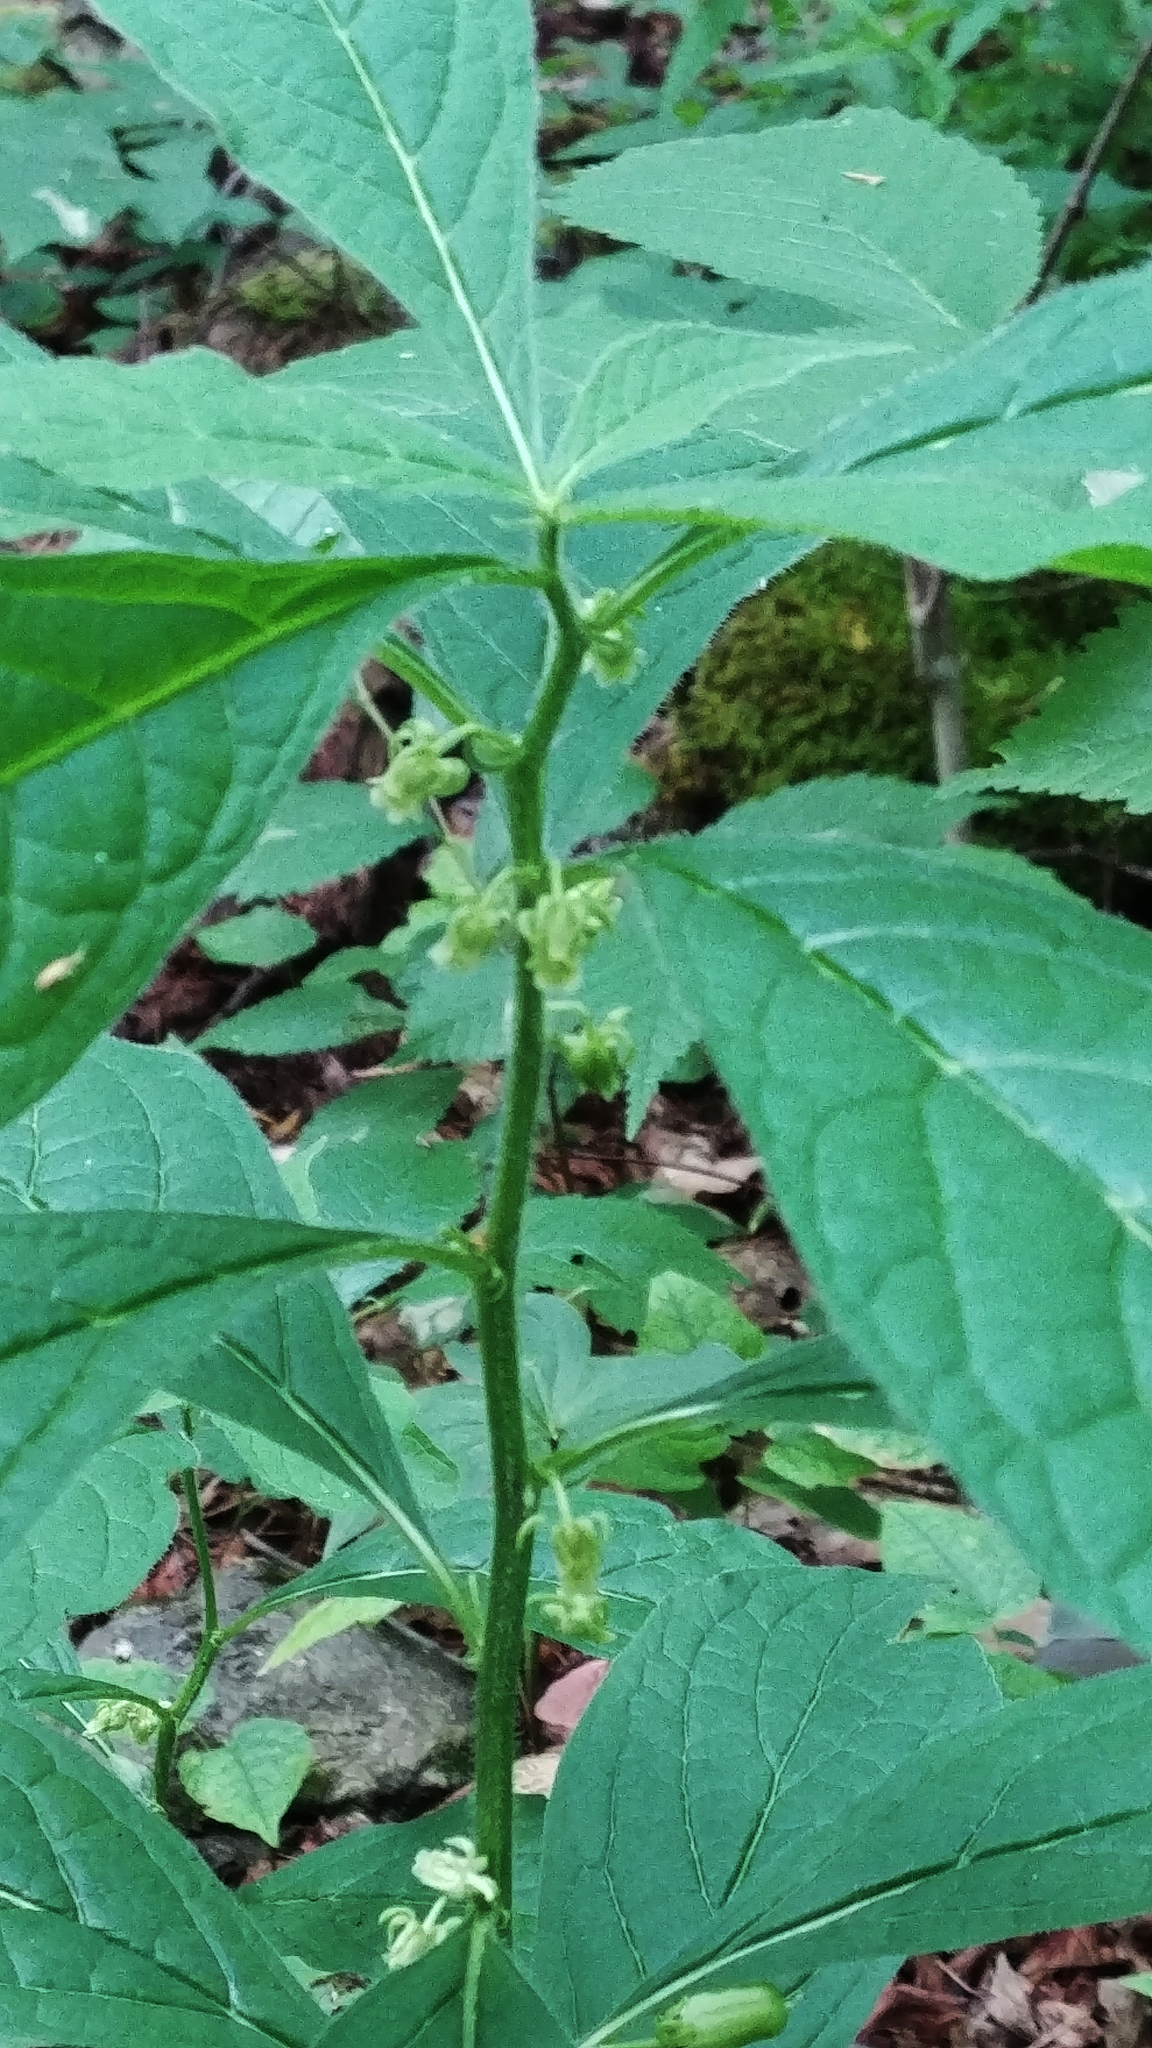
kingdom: Plantae
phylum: Tracheophyta
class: Magnoliopsida
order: Malpighiales
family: Violaceae
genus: Cubelium
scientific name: Cubelium concolor
